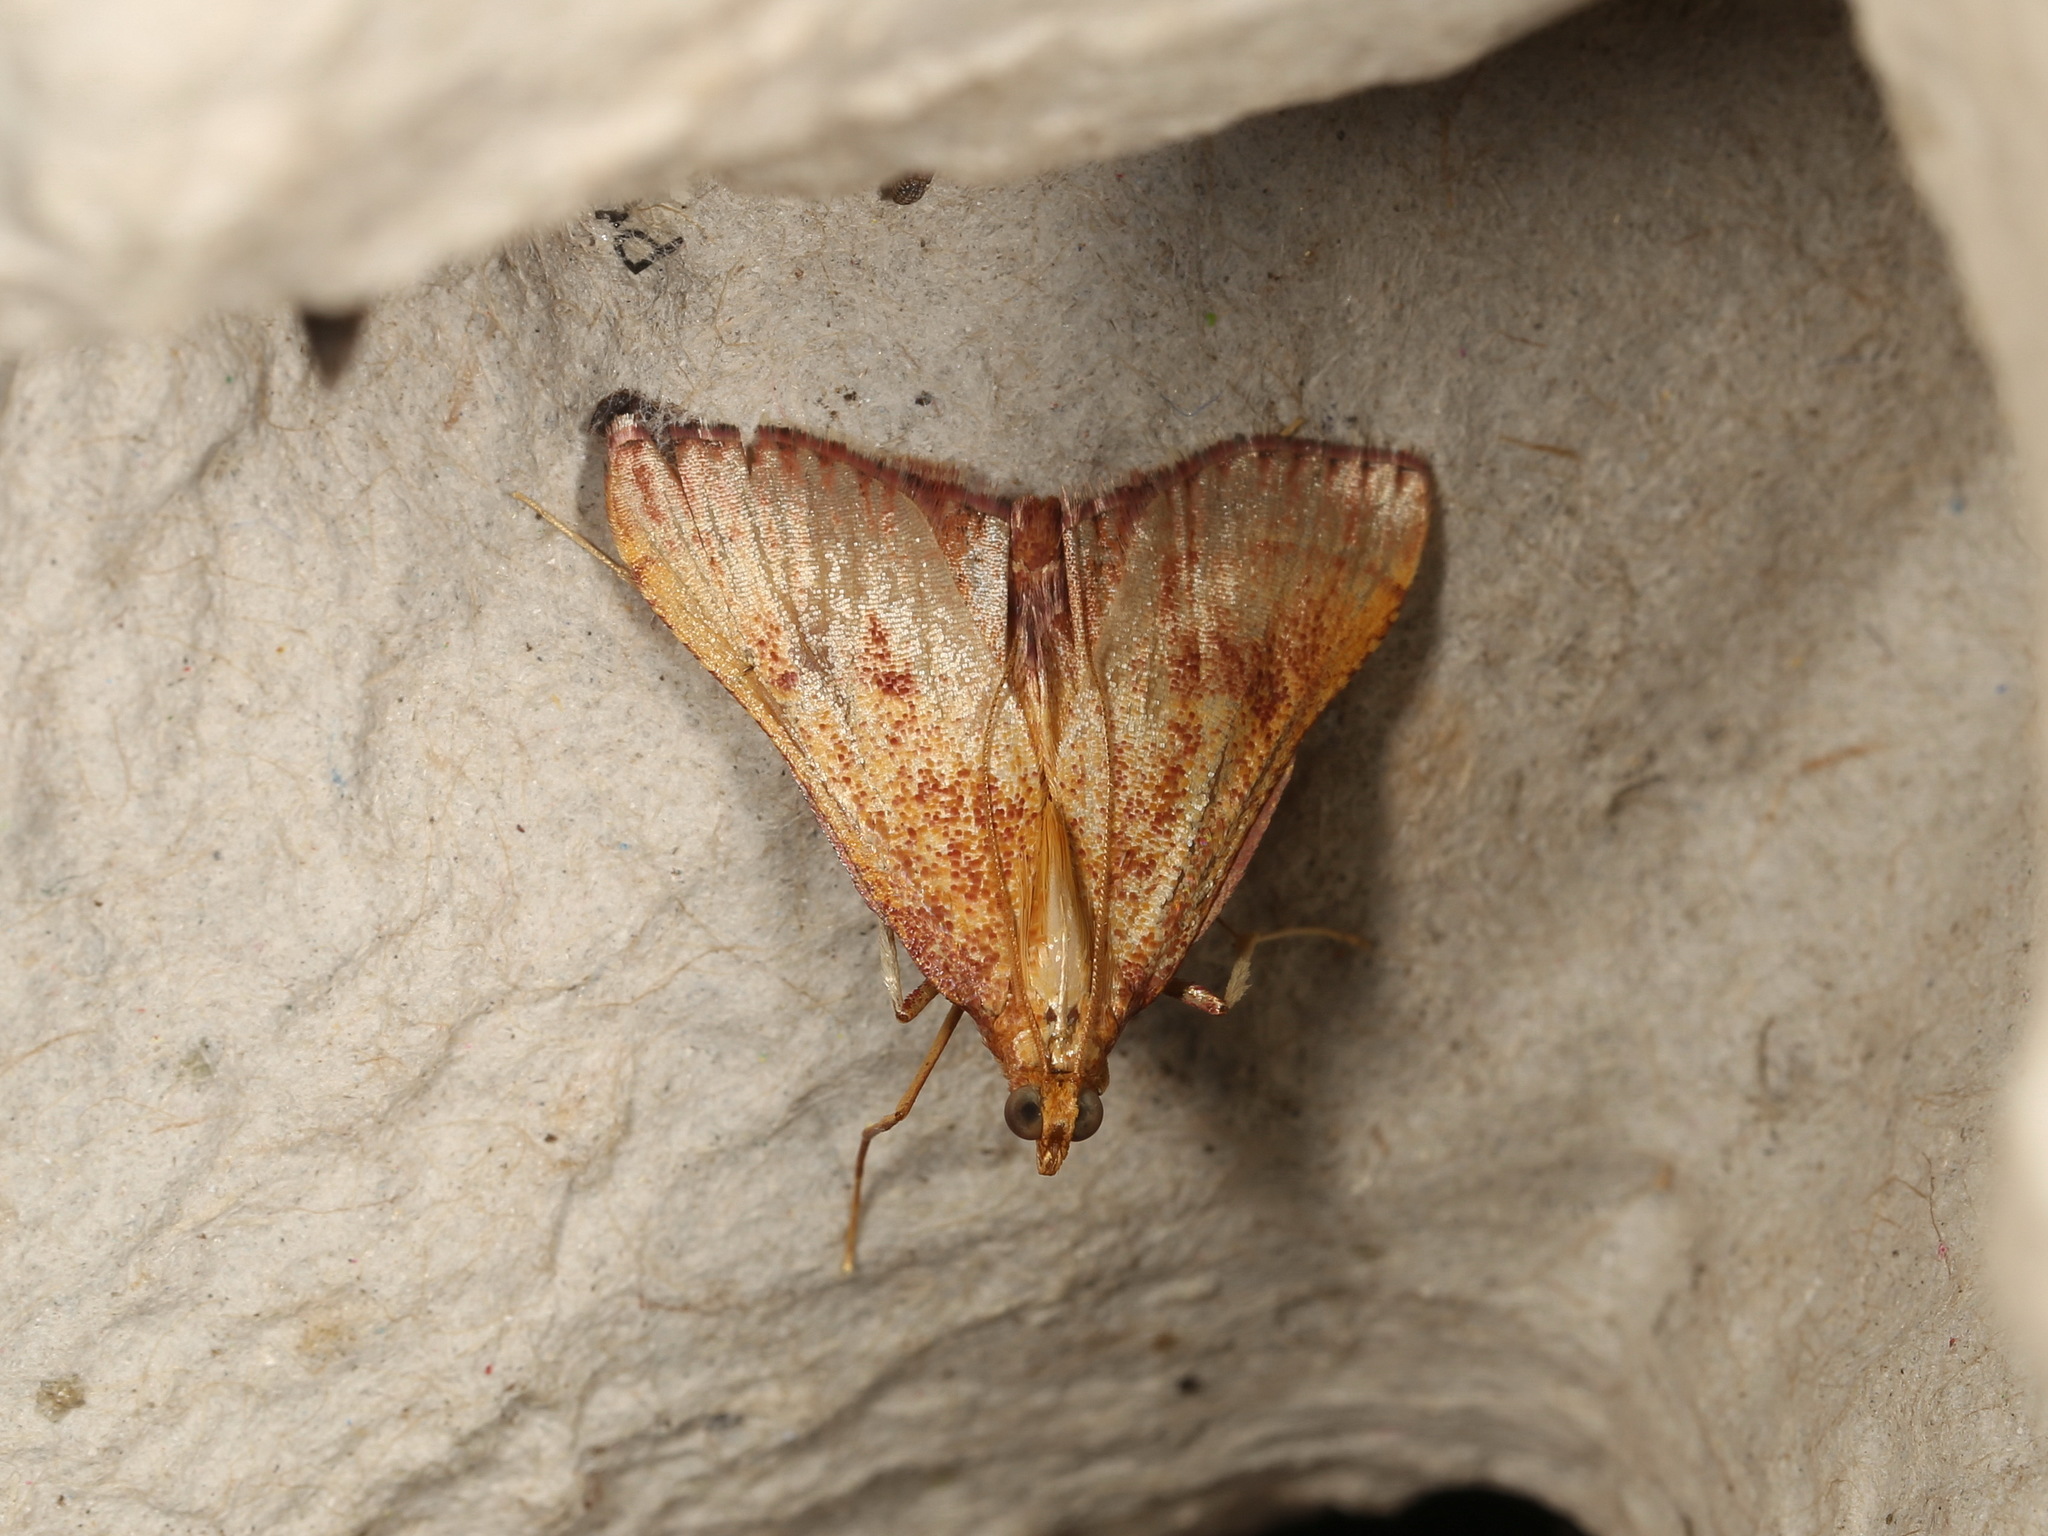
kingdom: Animalia
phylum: Arthropoda
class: Insecta
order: Lepidoptera
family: Pyralidae
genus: Endotricha
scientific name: Endotricha pyrosalis
